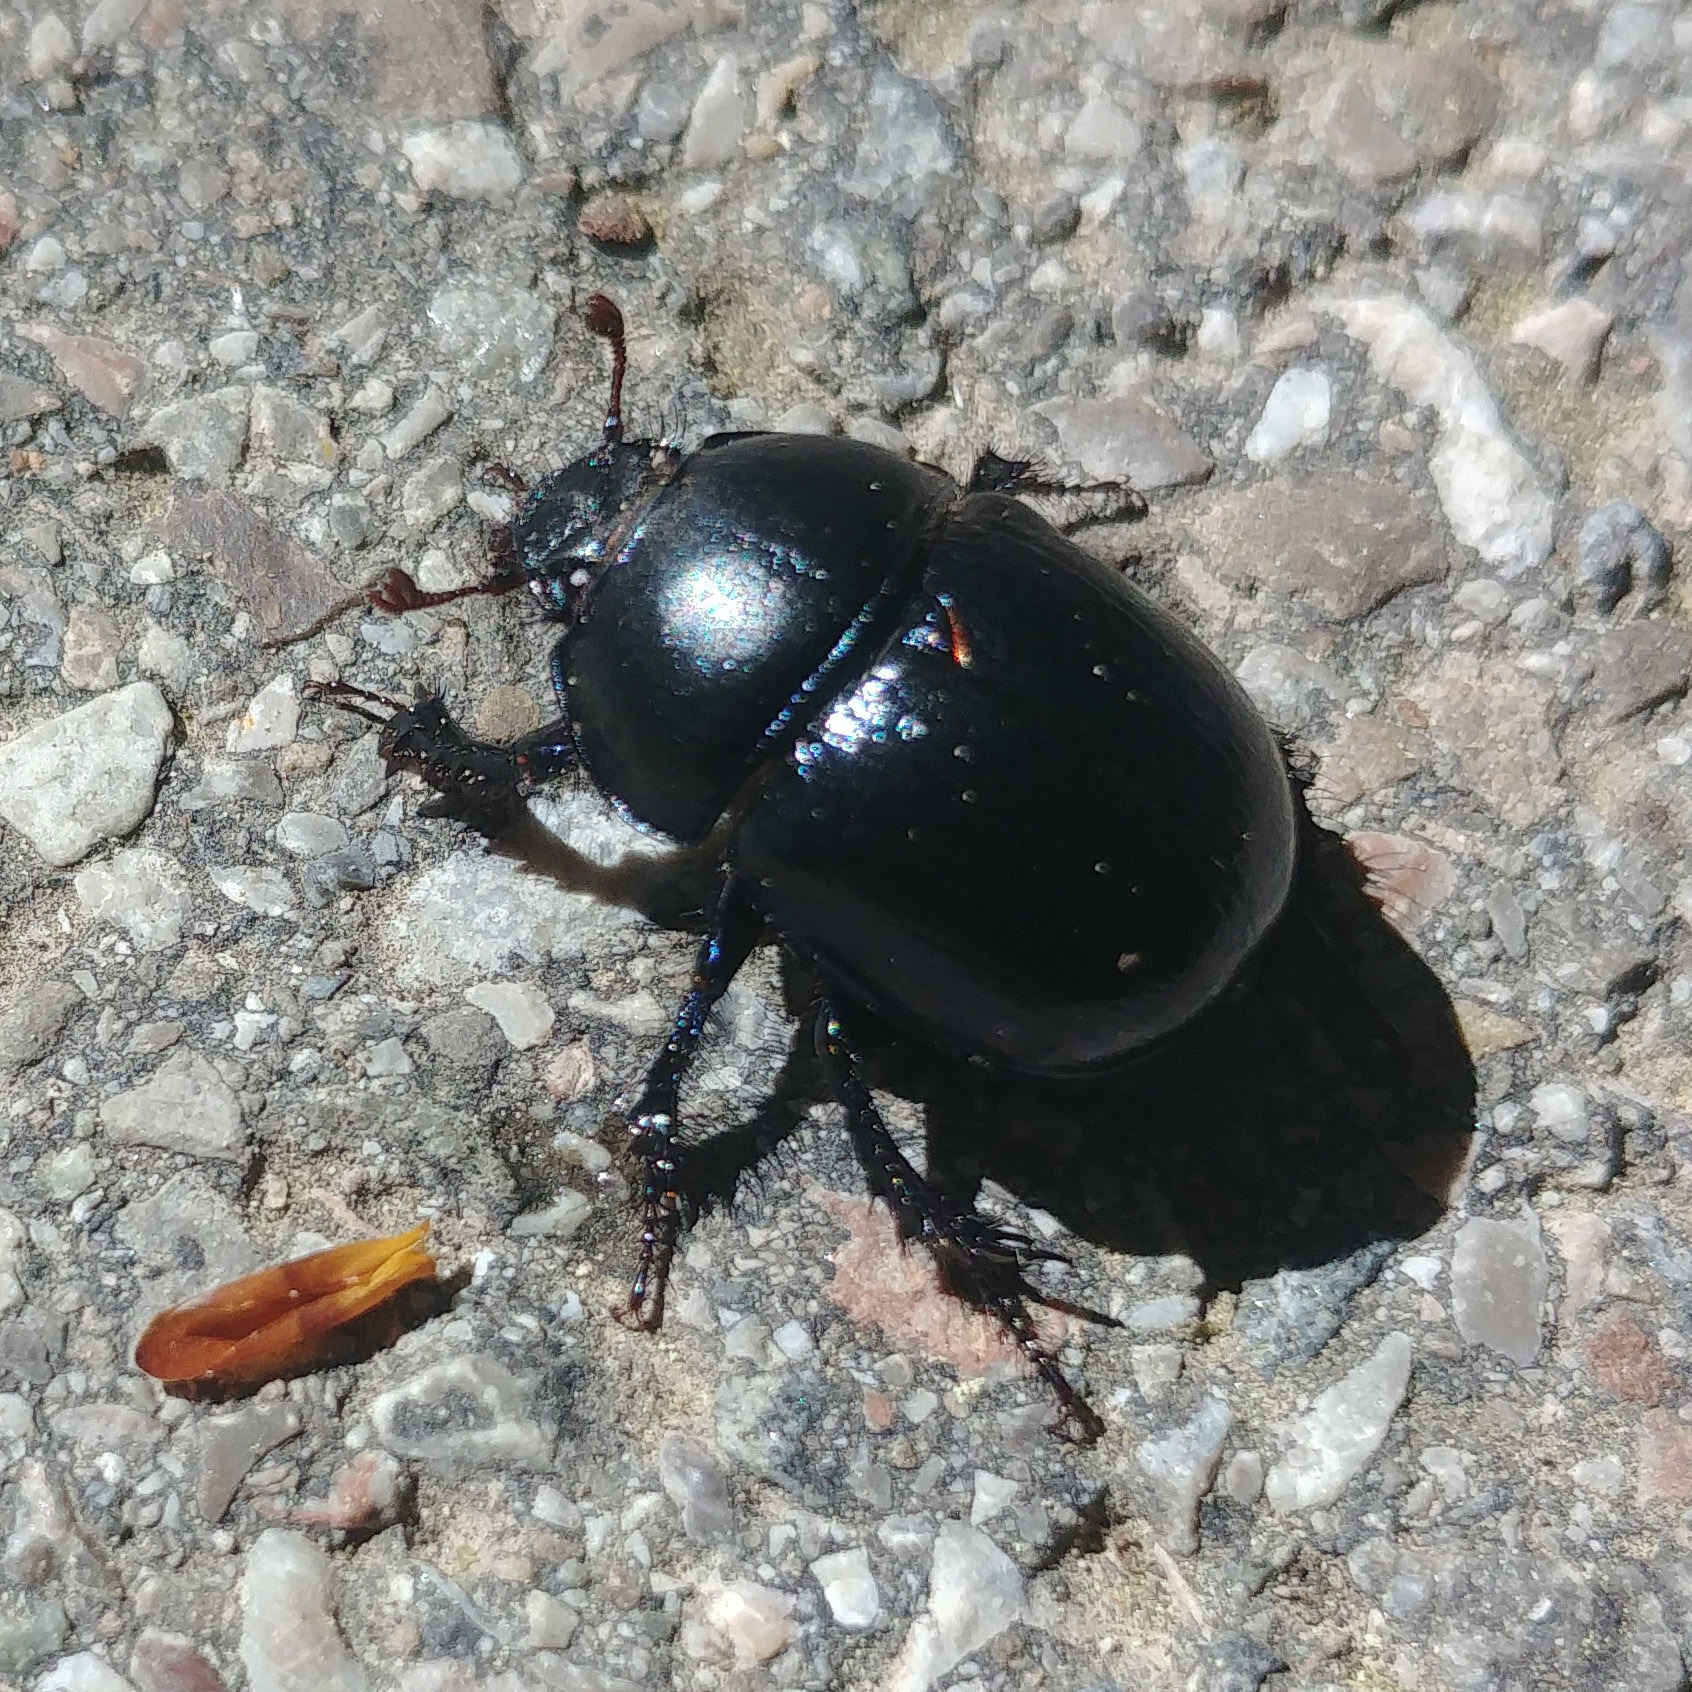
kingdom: Animalia
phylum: Arthropoda
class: Insecta
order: Coleoptera
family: Geotrupidae
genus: Anoplotrupes
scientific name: Anoplotrupes stercorosus
